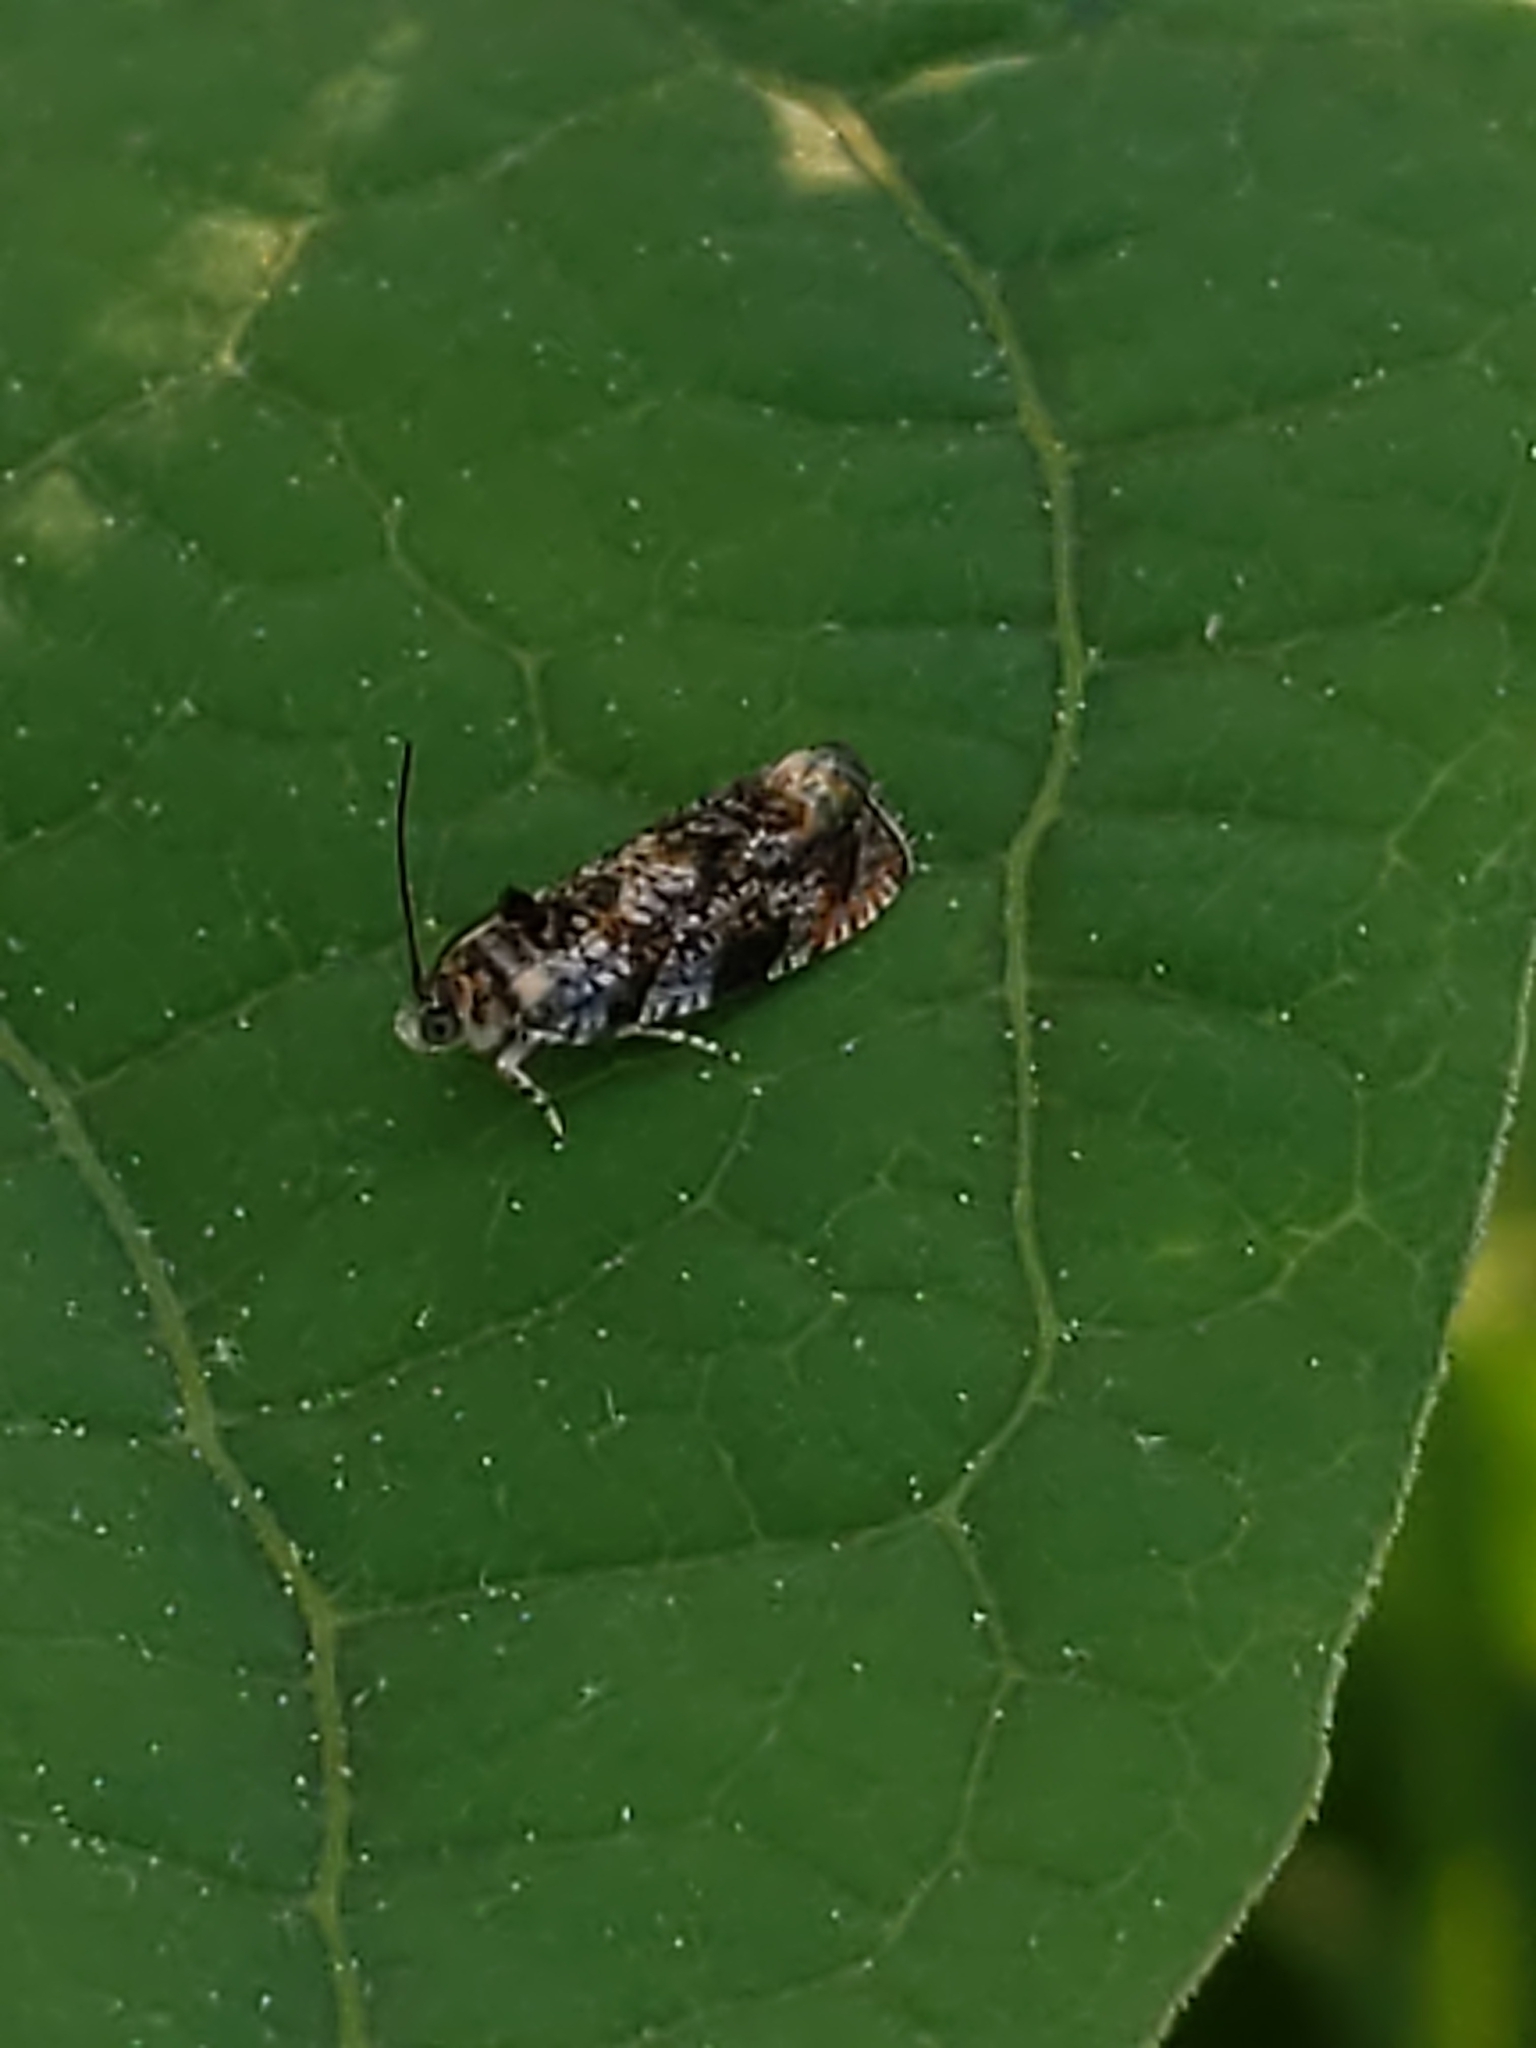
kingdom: Animalia
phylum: Arthropoda
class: Insecta
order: Lepidoptera
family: Tortricidae
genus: Olethreutes
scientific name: Olethreutes albiciliana
